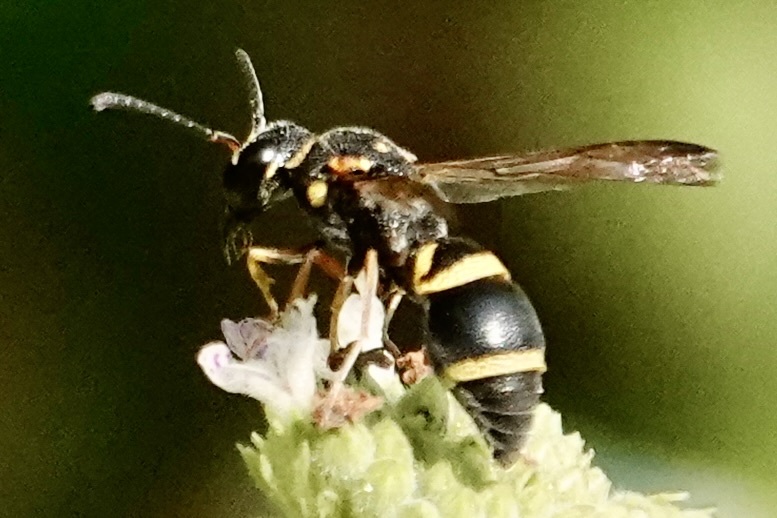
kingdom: Animalia
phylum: Arthropoda
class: Insecta
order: Hymenoptera
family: Eumenidae
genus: Parancistrocerus
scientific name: Parancistrocerus fulvipes
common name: Potter wasp
